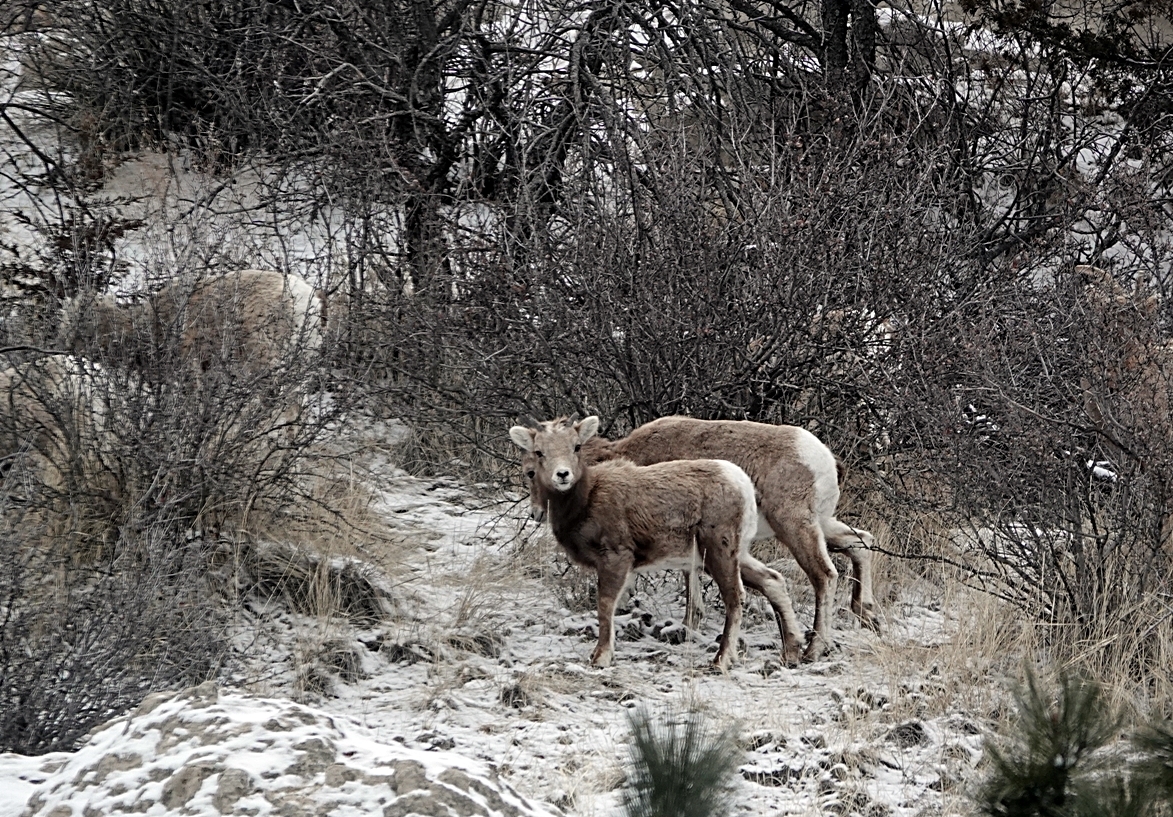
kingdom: Animalia
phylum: Chordata
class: Mammalia
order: Artiodactyla
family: Bovidae
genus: Ovis
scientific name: Ovis canadensis
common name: Bighorn sheep
